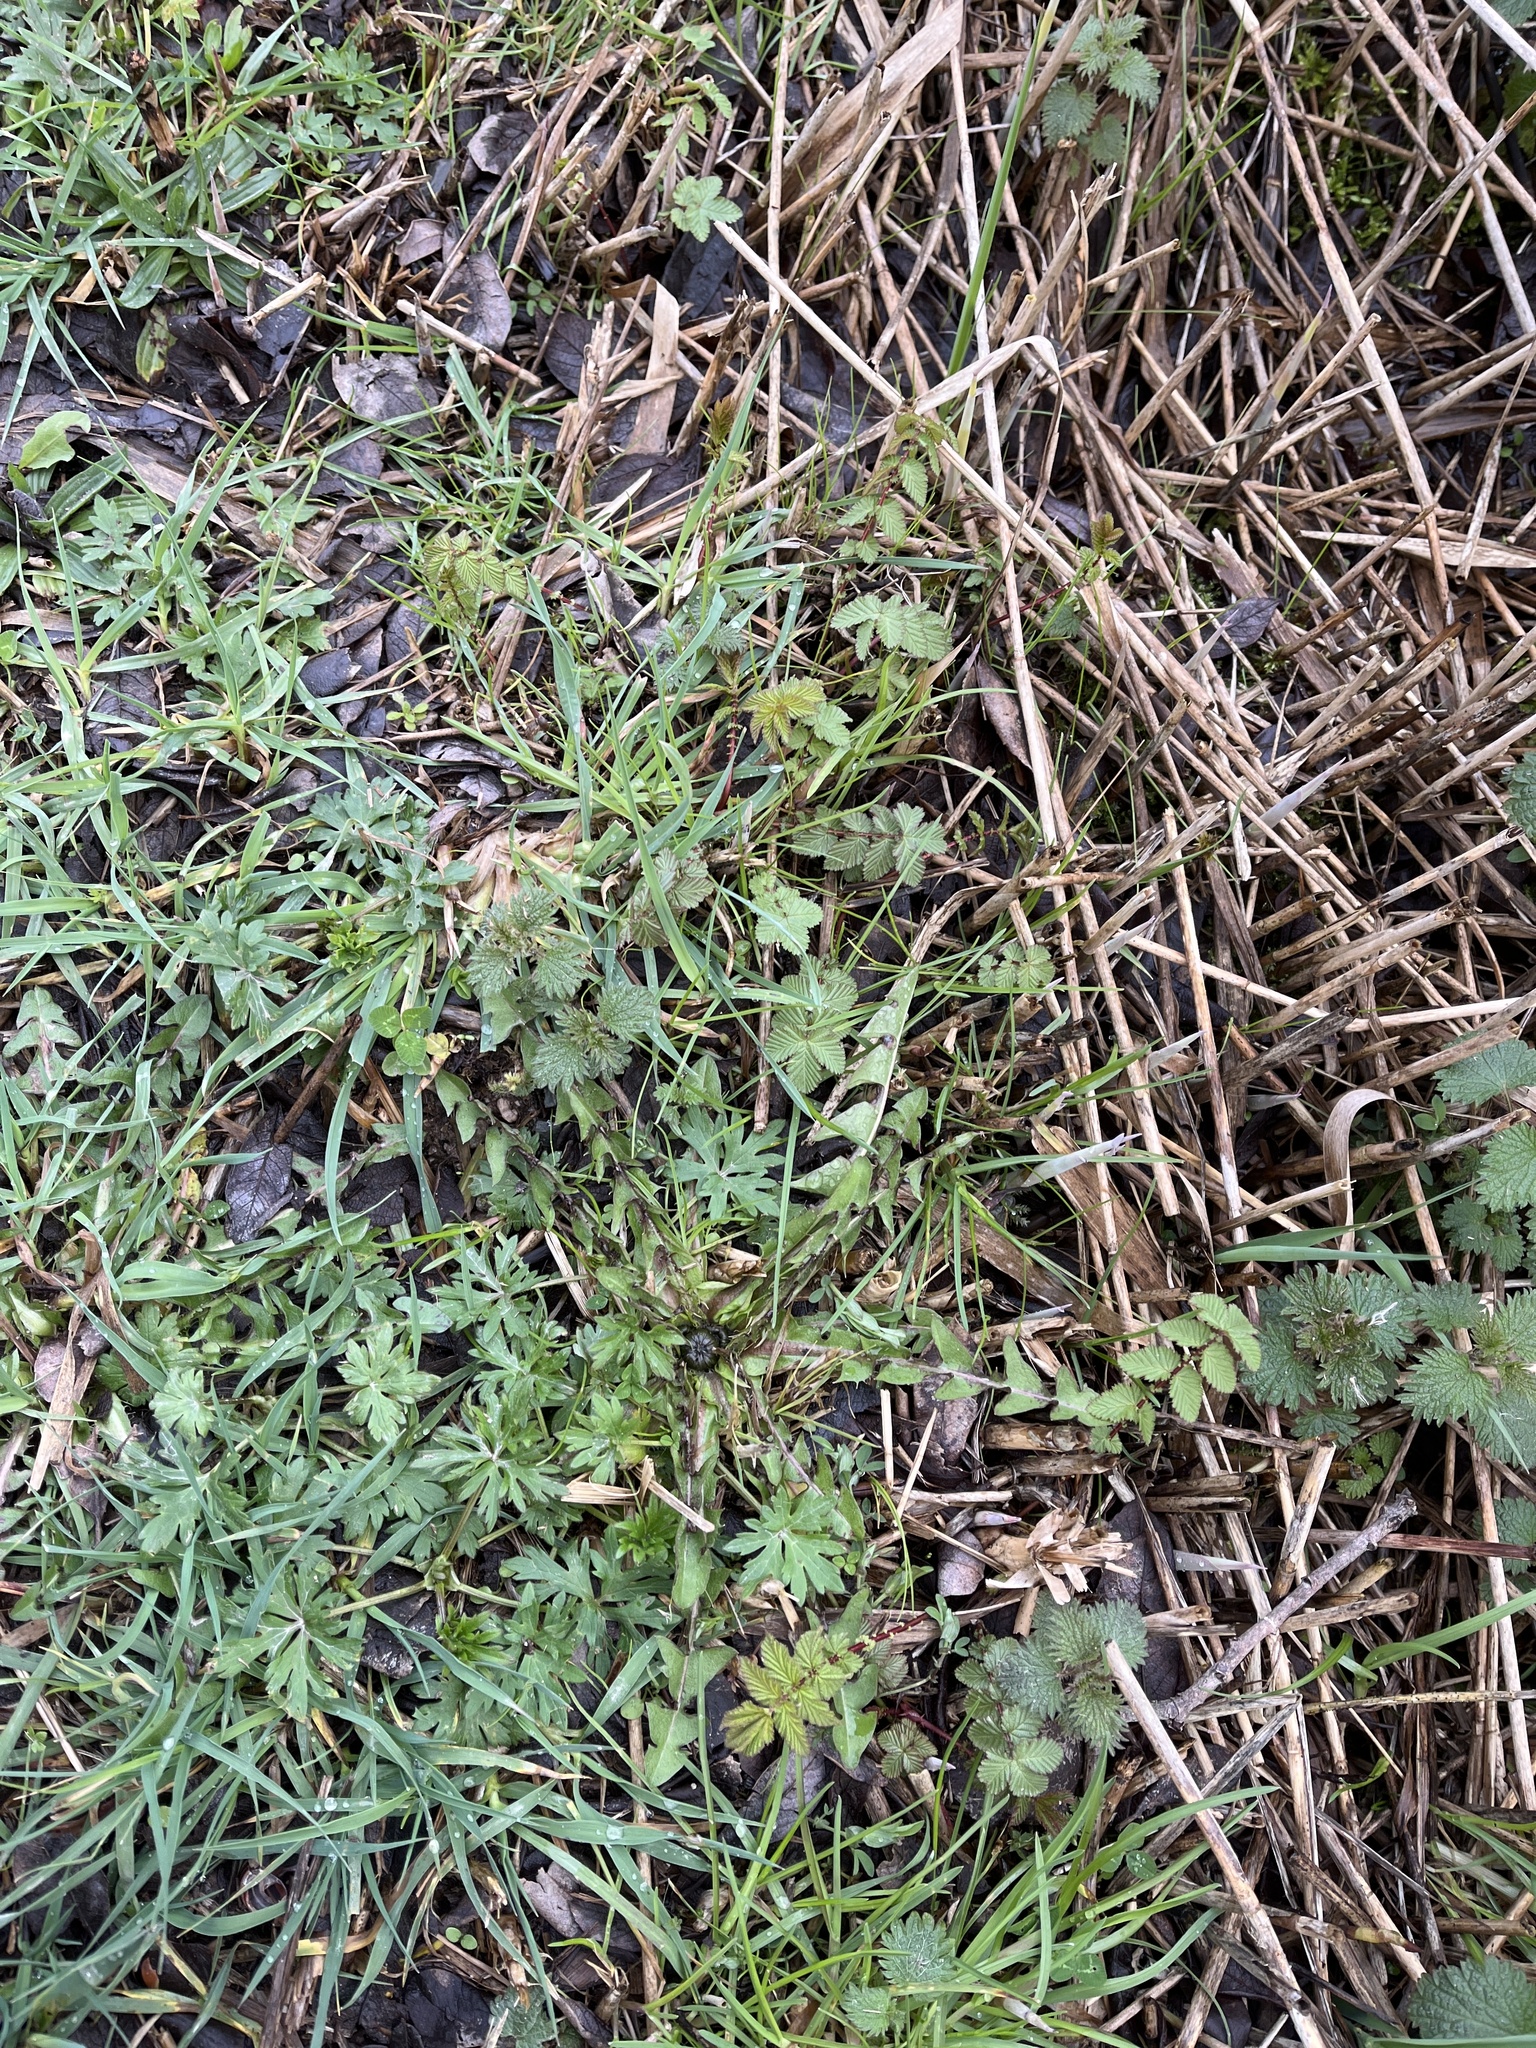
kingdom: Plantae
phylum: Tracheophyta
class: Magnoliopsida
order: Rosales
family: Rosaceae
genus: Filipendula
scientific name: Filipendula ulmaria
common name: Meadowsweet
